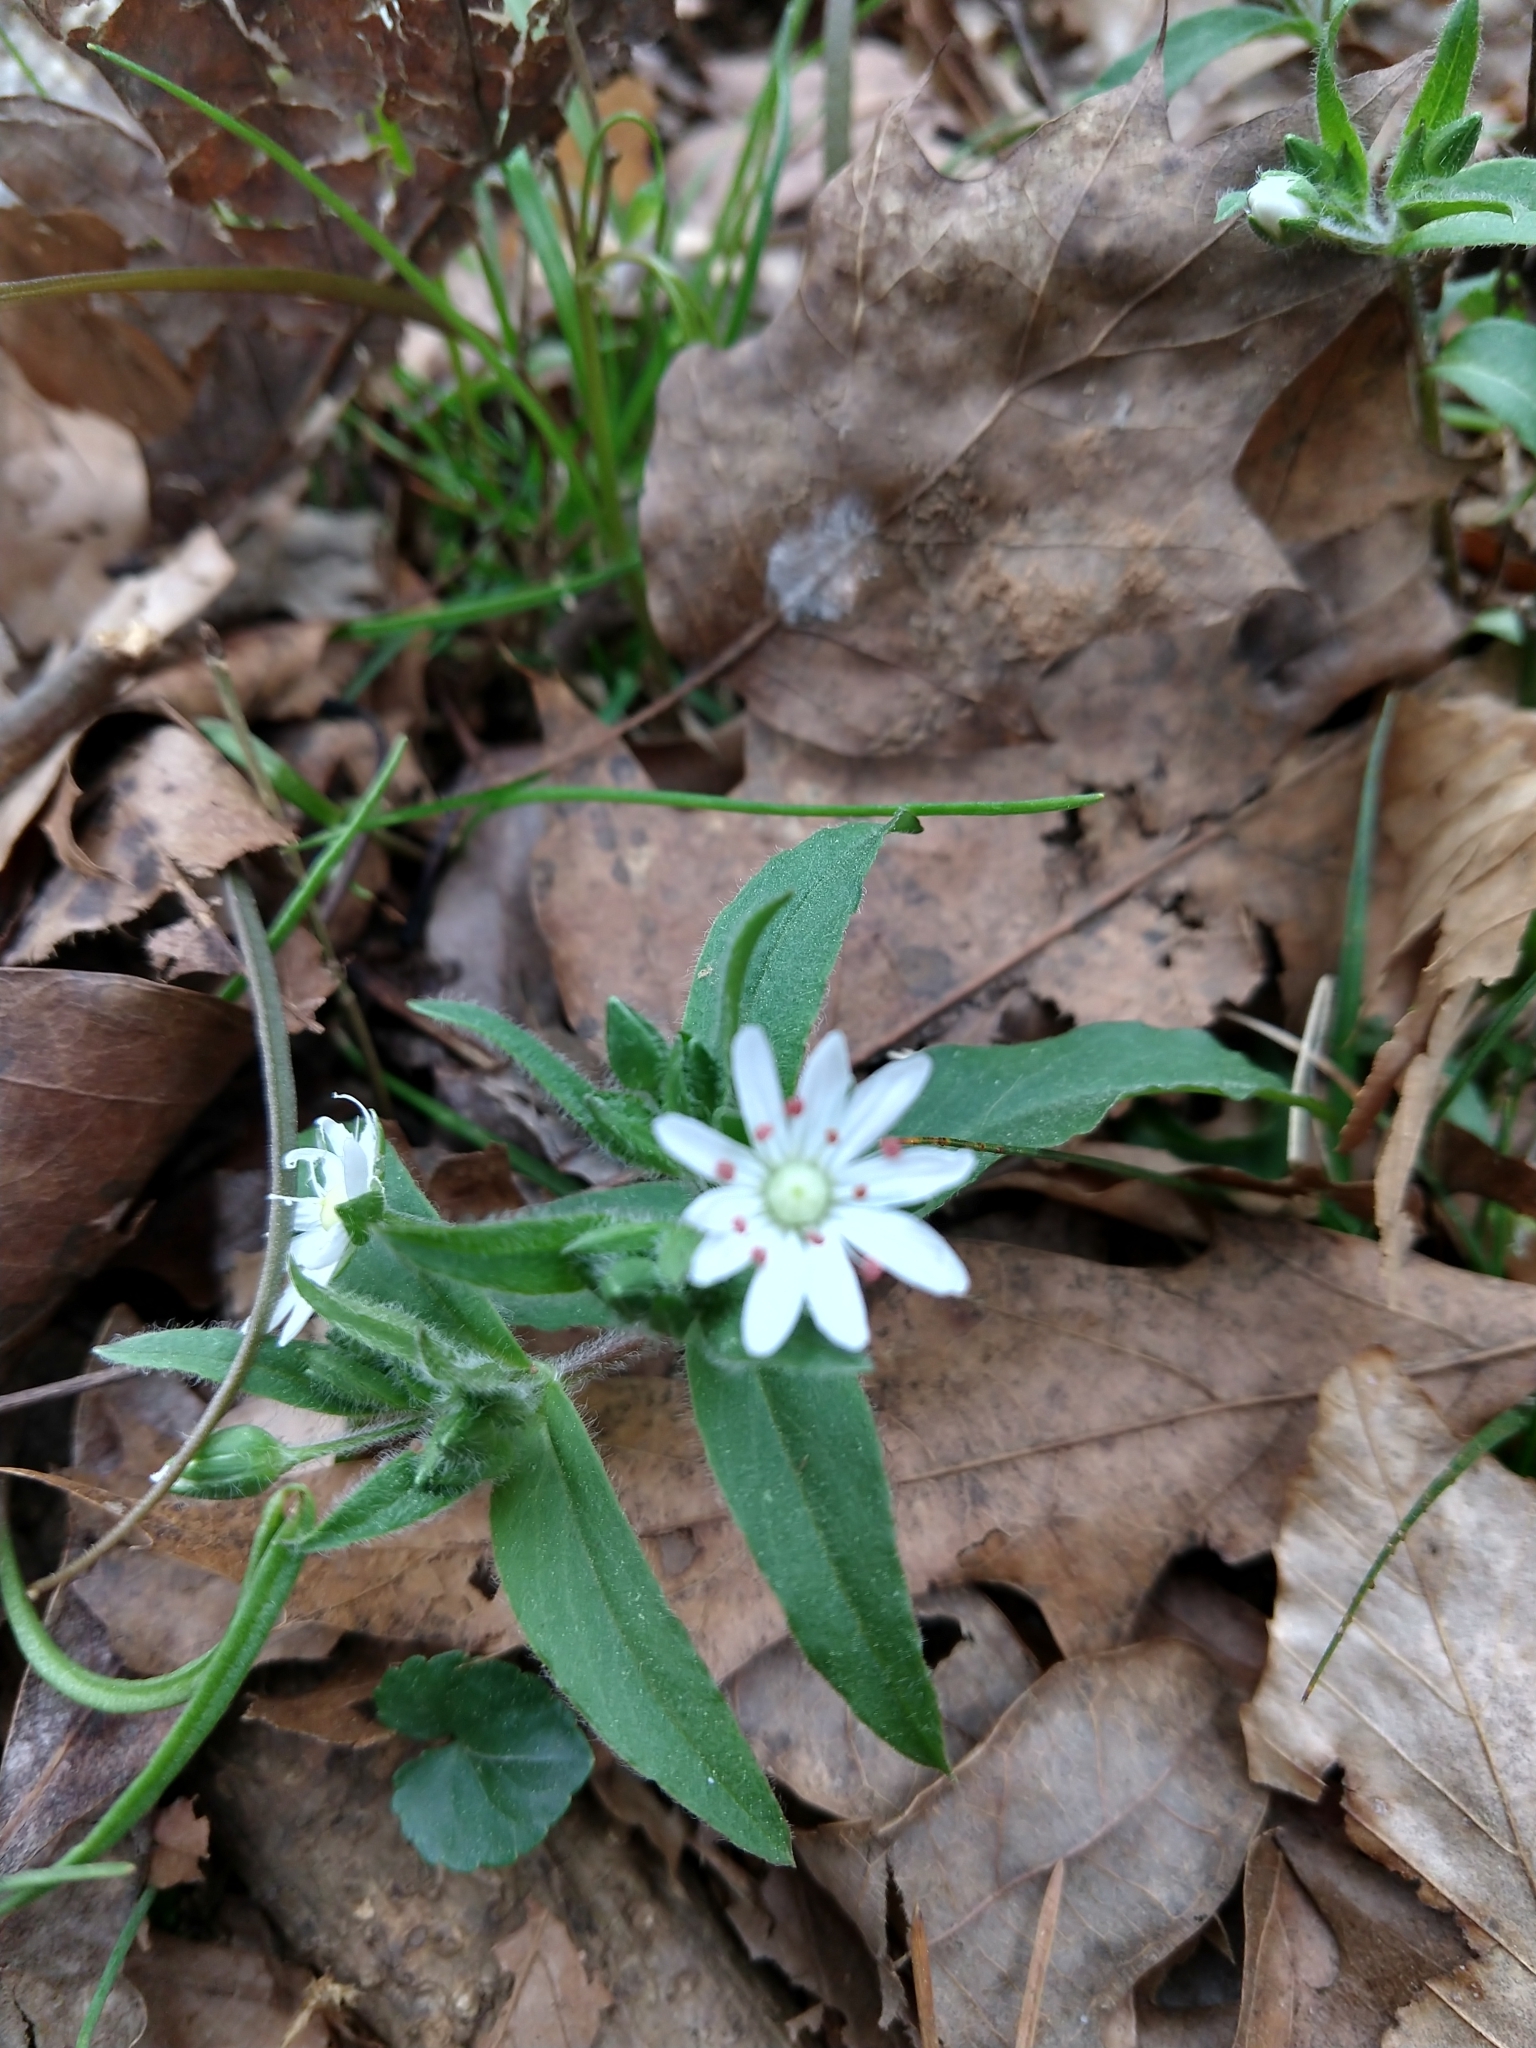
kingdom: Plantae
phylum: Tracheophyta
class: Magnoliopsida
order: Caryophyllales
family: Caryophyllaceae
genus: Stellaria
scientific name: Stellaria pubera
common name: Star chickweed
